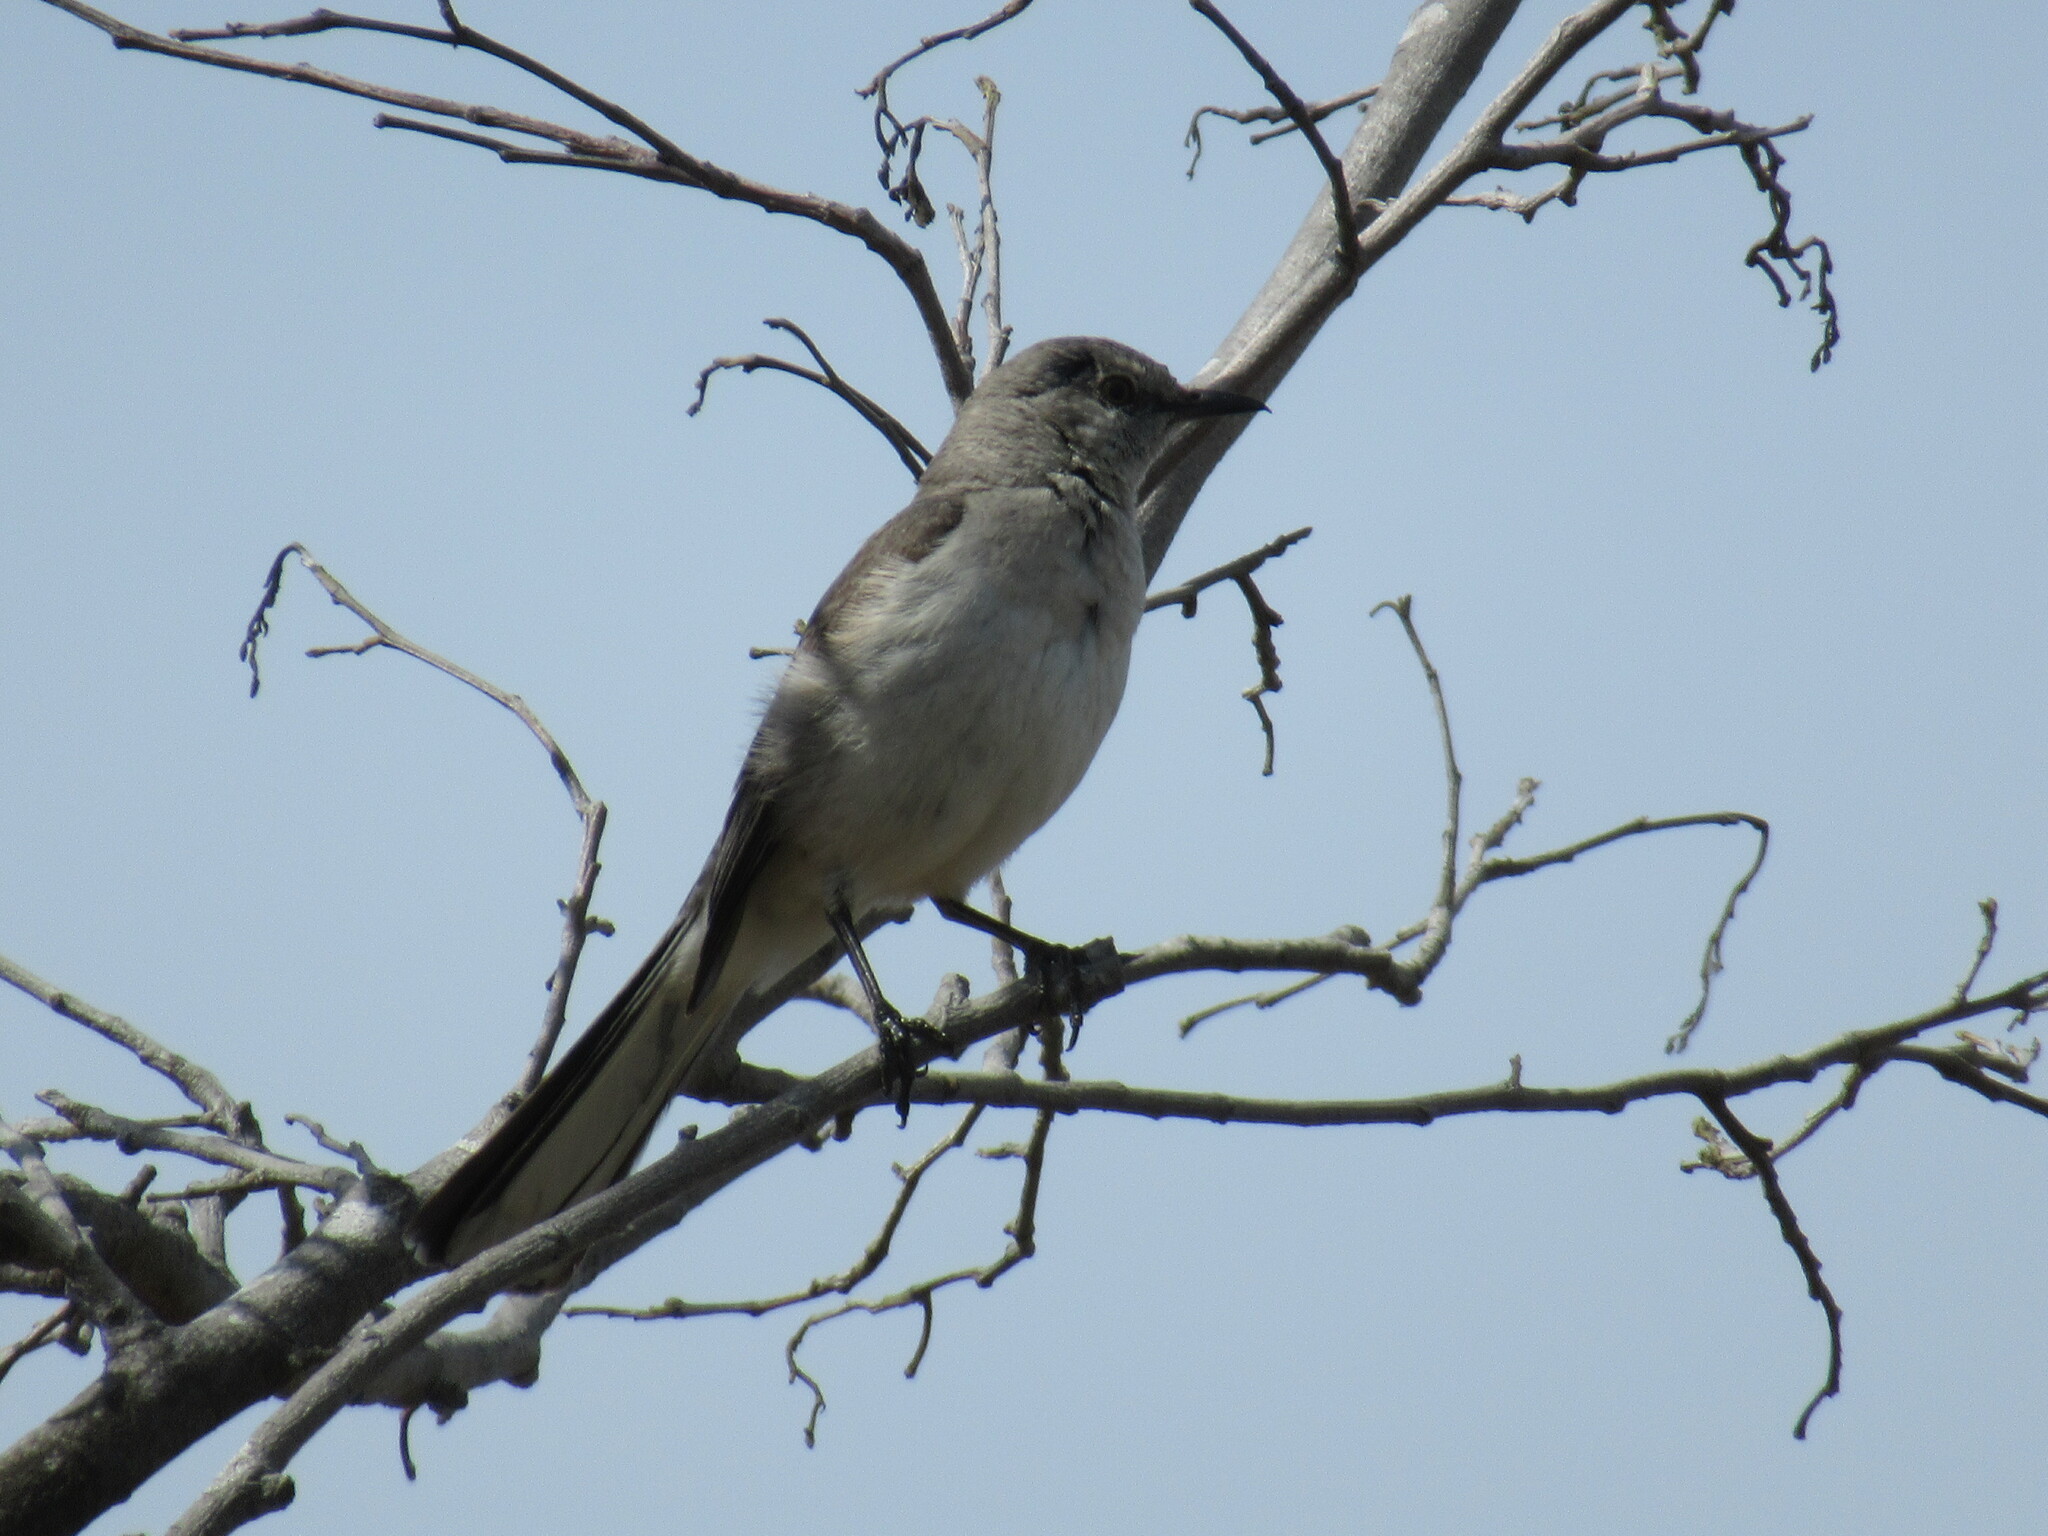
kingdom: Animalia
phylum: Chordata
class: Aves
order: Passeriformes
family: Mimidae
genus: Mimus
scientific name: Mimus polyglottos
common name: Northern mockingbird
